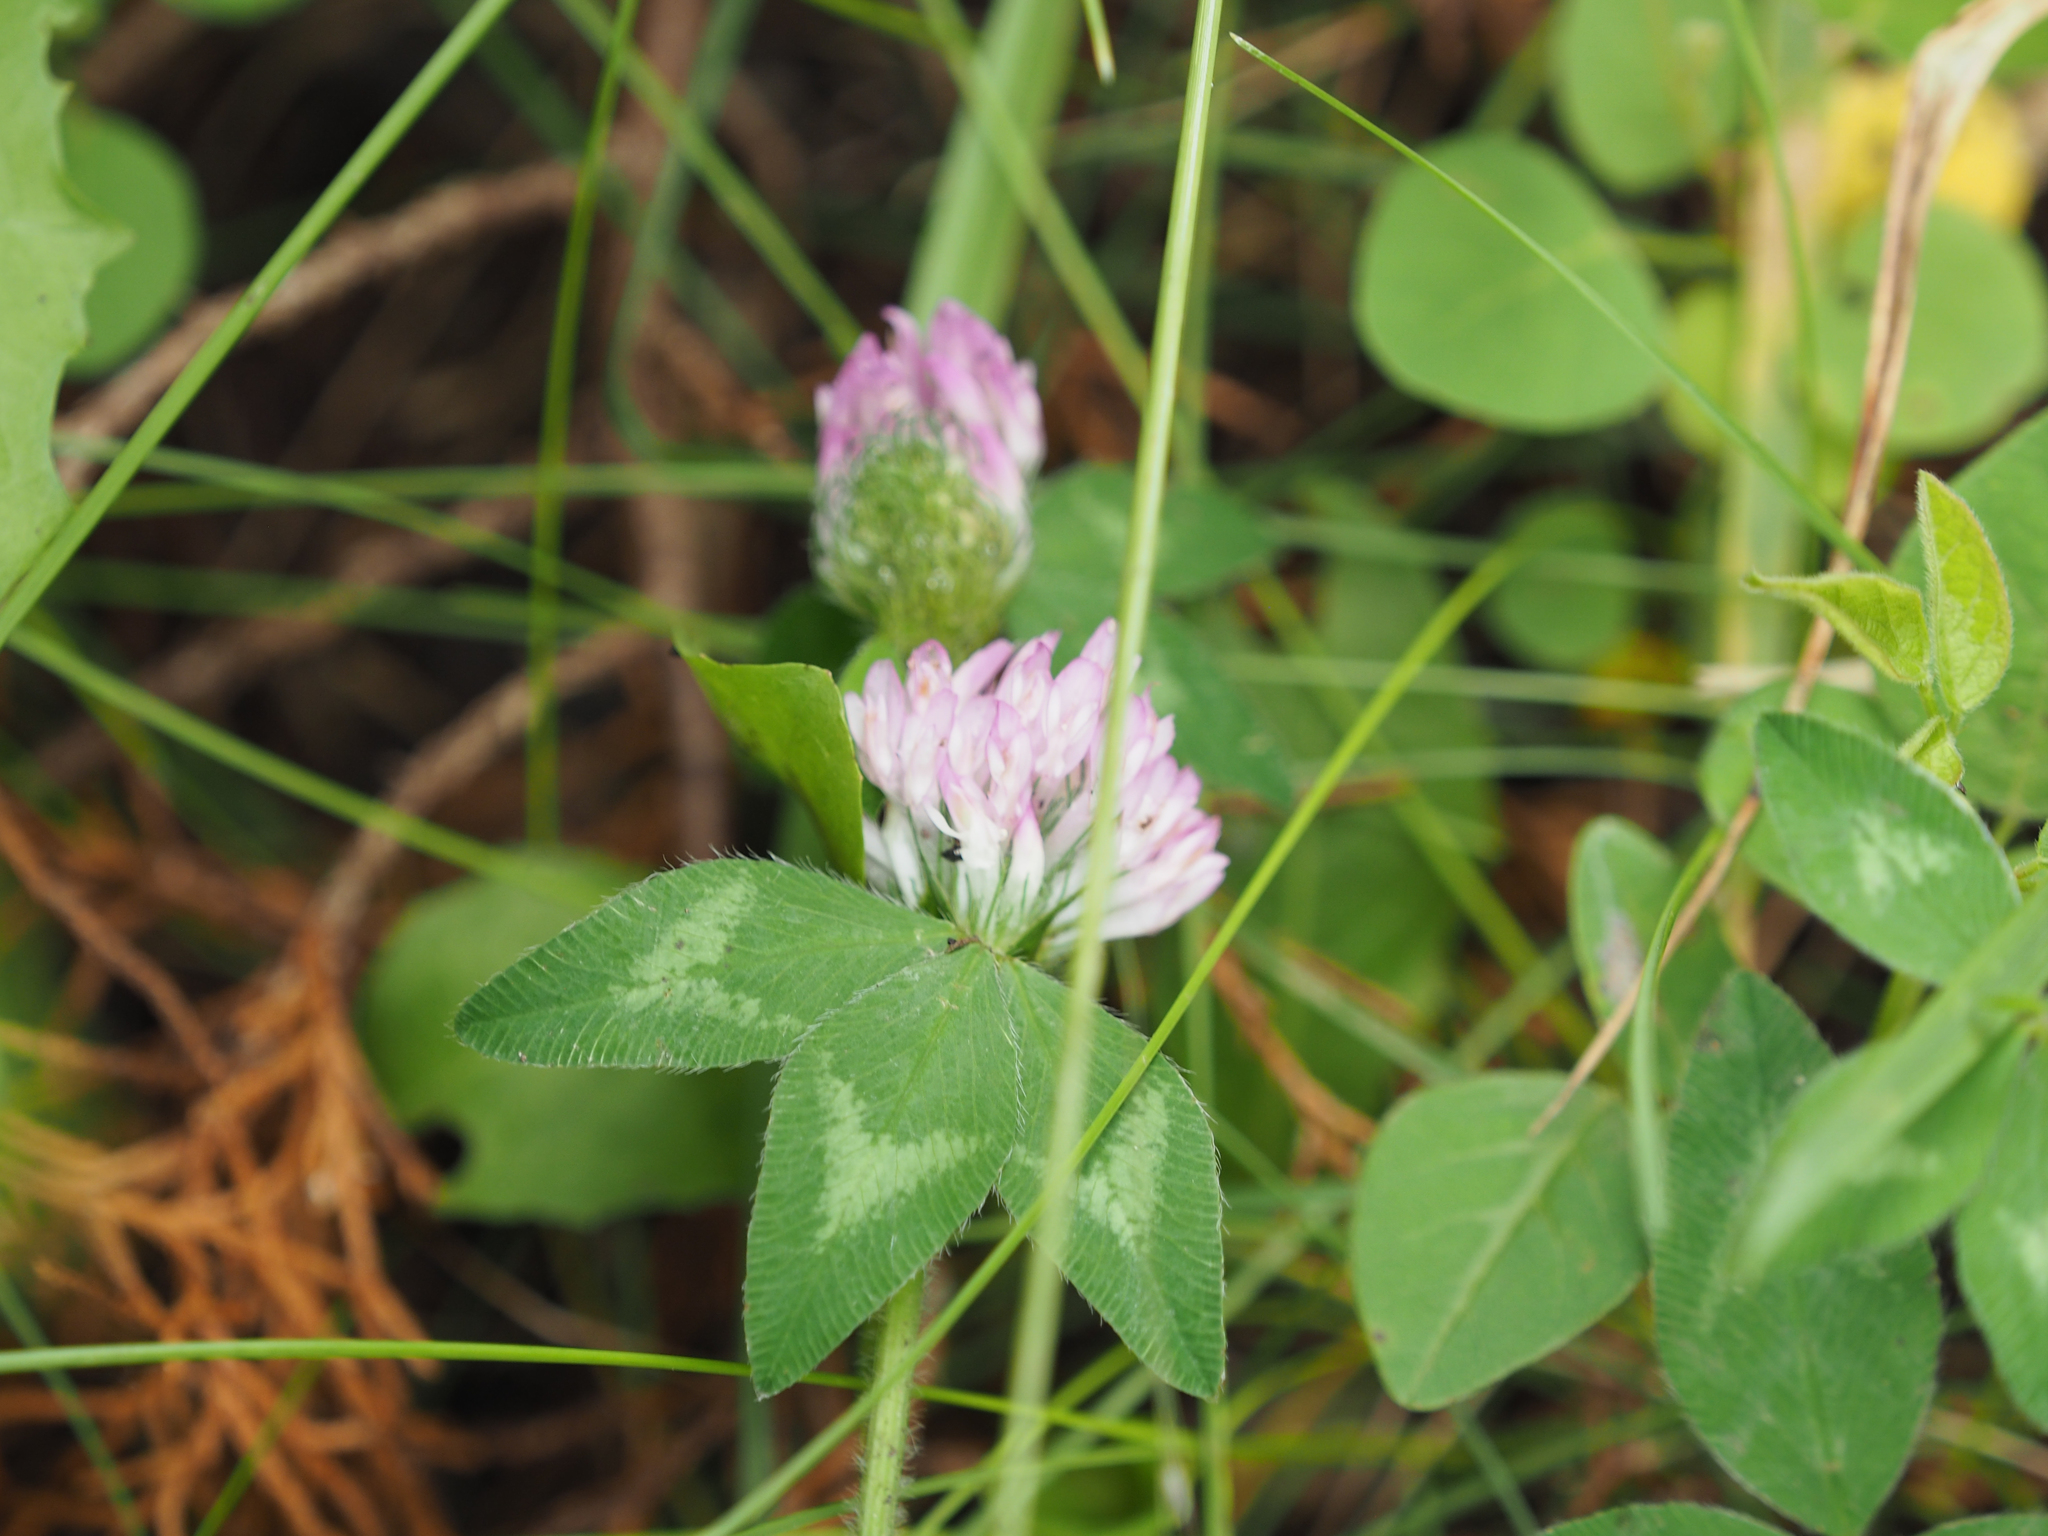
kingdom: Plantae
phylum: Tracheophyta
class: Magnoliopsida
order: Fabales
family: Fabaceae
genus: Trifolium
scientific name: Trifolium pratense
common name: Red clover
